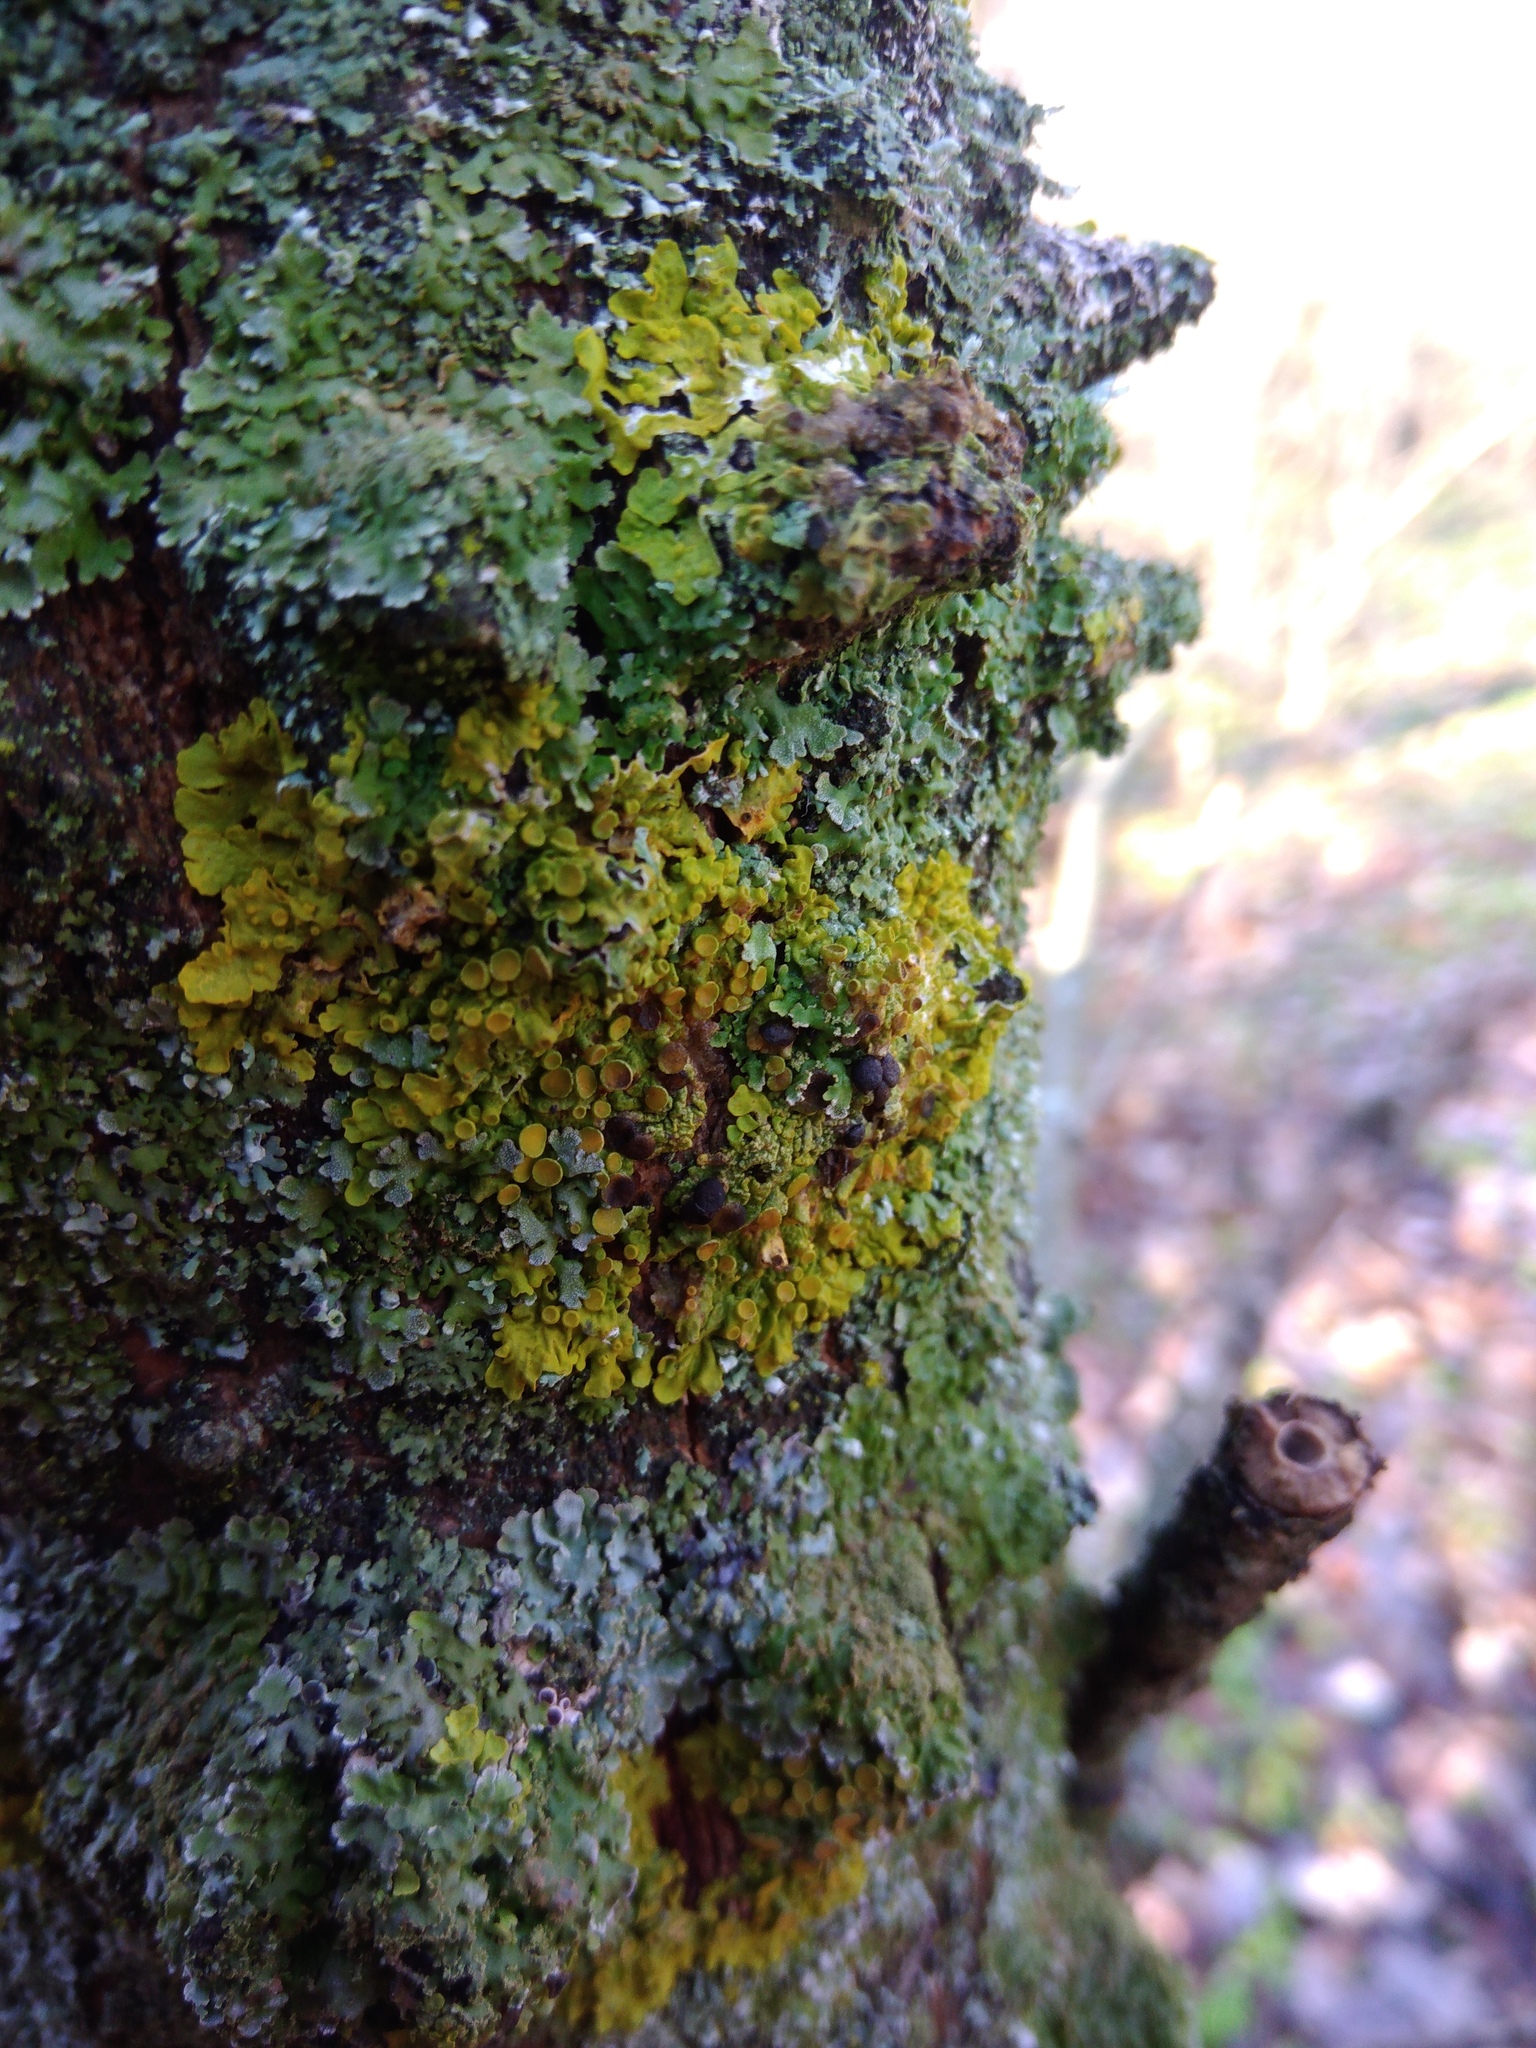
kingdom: Fungi
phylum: Ascomycota
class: Dothideomycetes
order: Mycosphaerellales
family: Teratosphaeriaceae
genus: Xanthoriicola
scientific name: Xanthoriicola physciae
